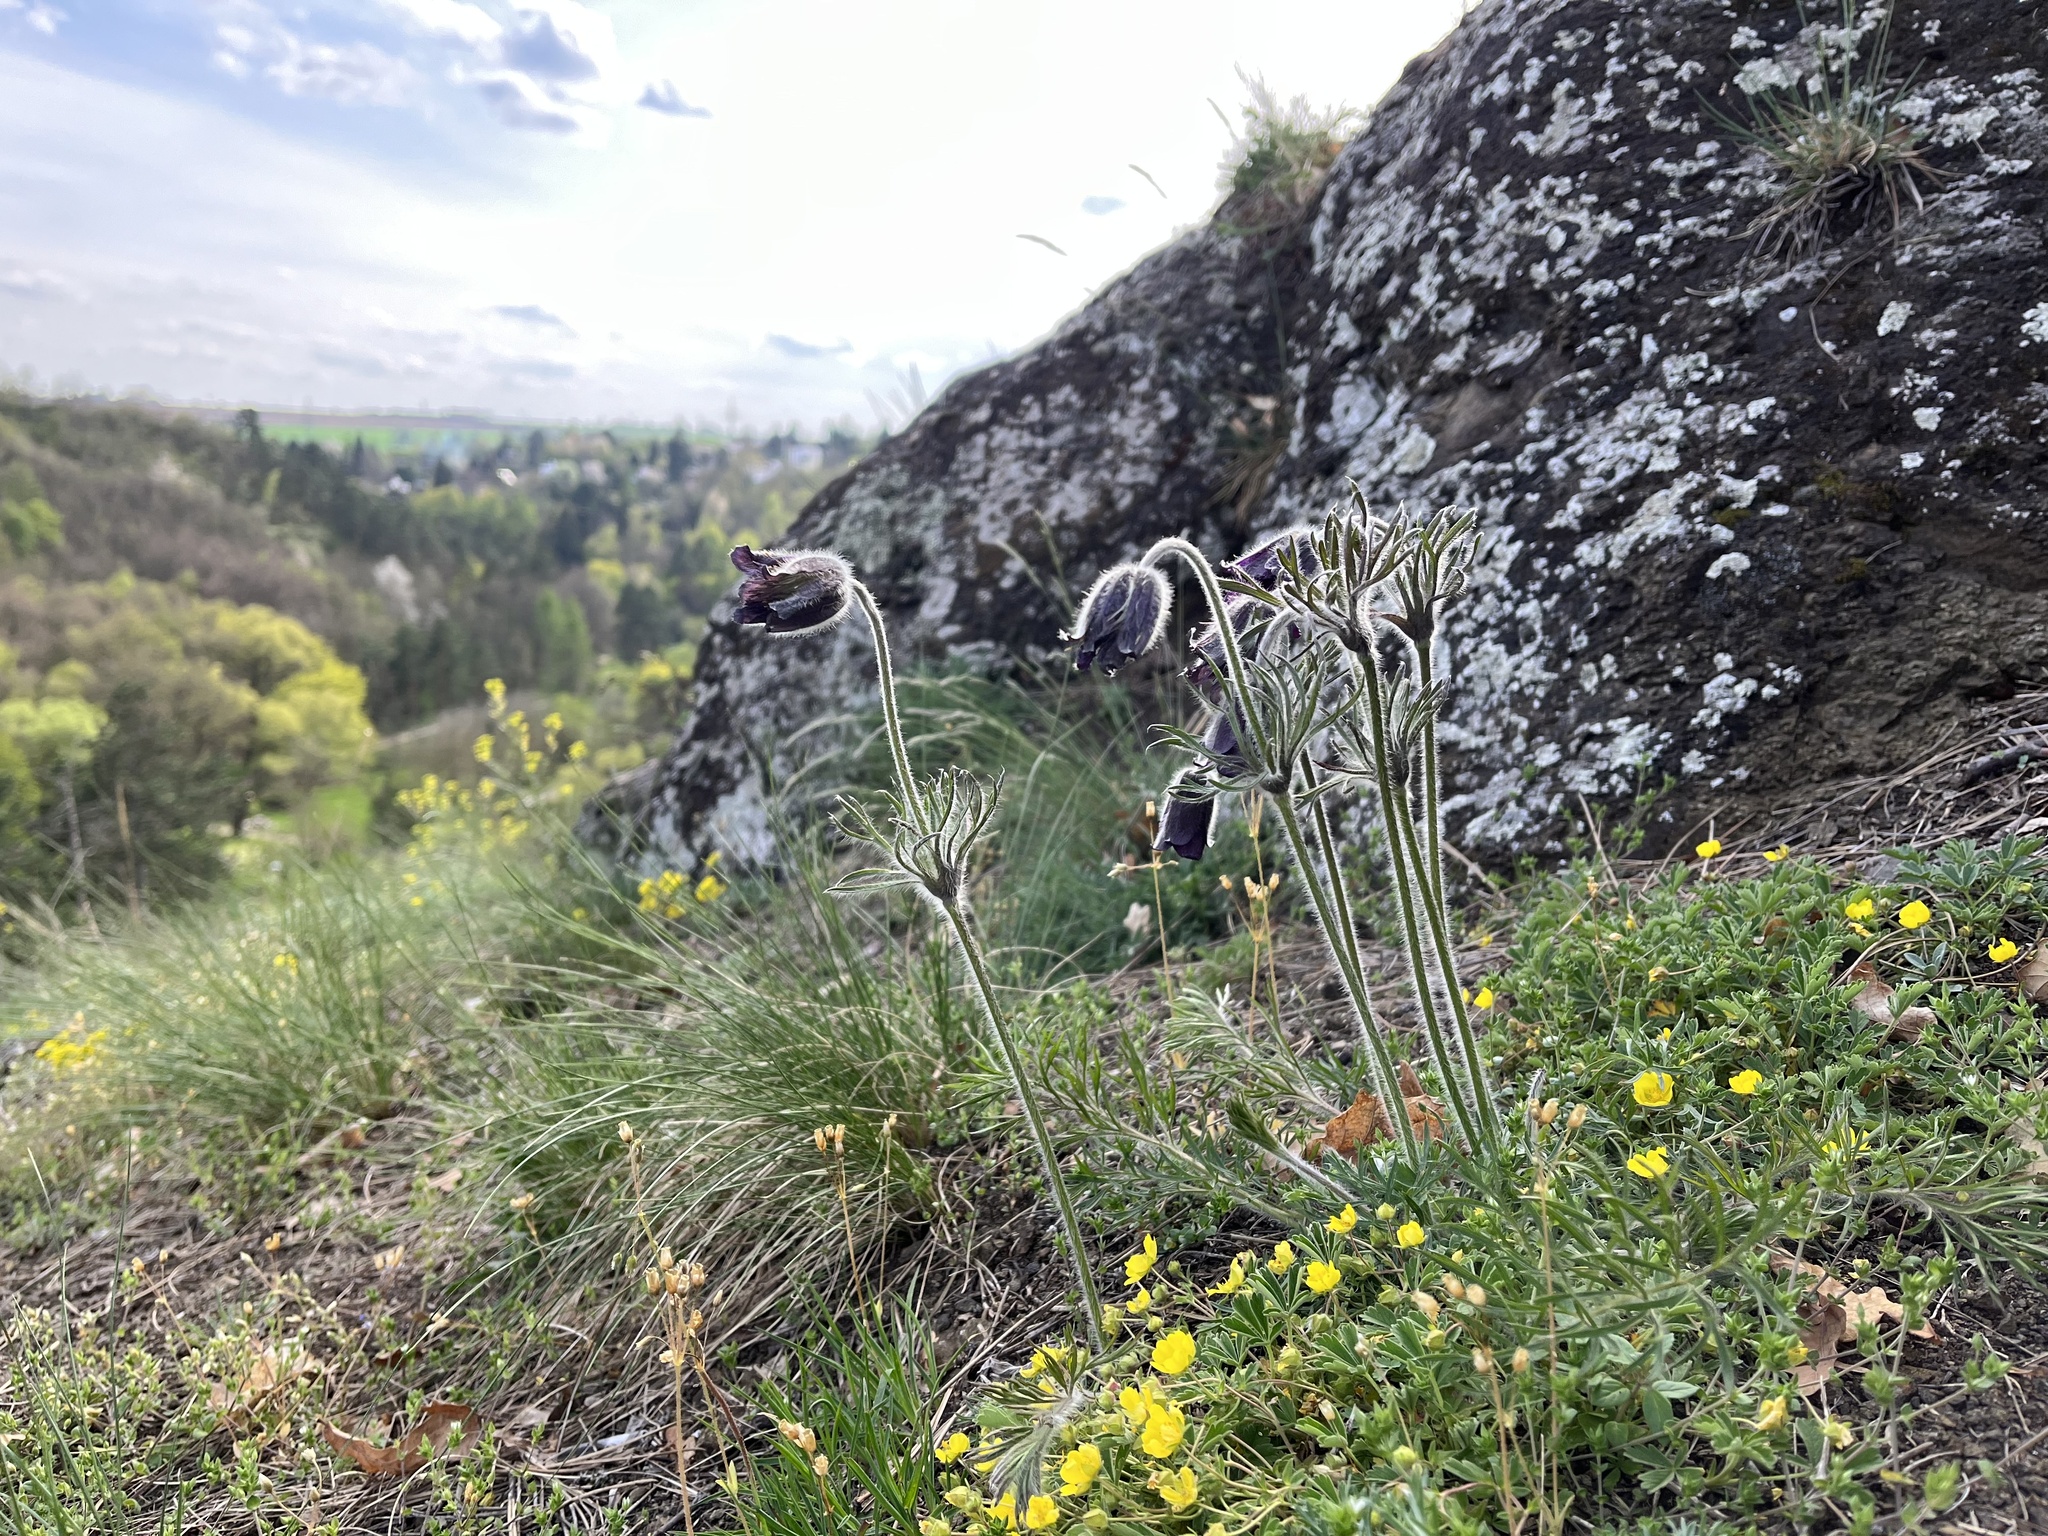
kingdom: Plantae
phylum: Tracheophyta
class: Magnoliopsida
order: Ranunculales
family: Ranunculaceae
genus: Pulsatilla
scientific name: Pulsatilla pratensis
